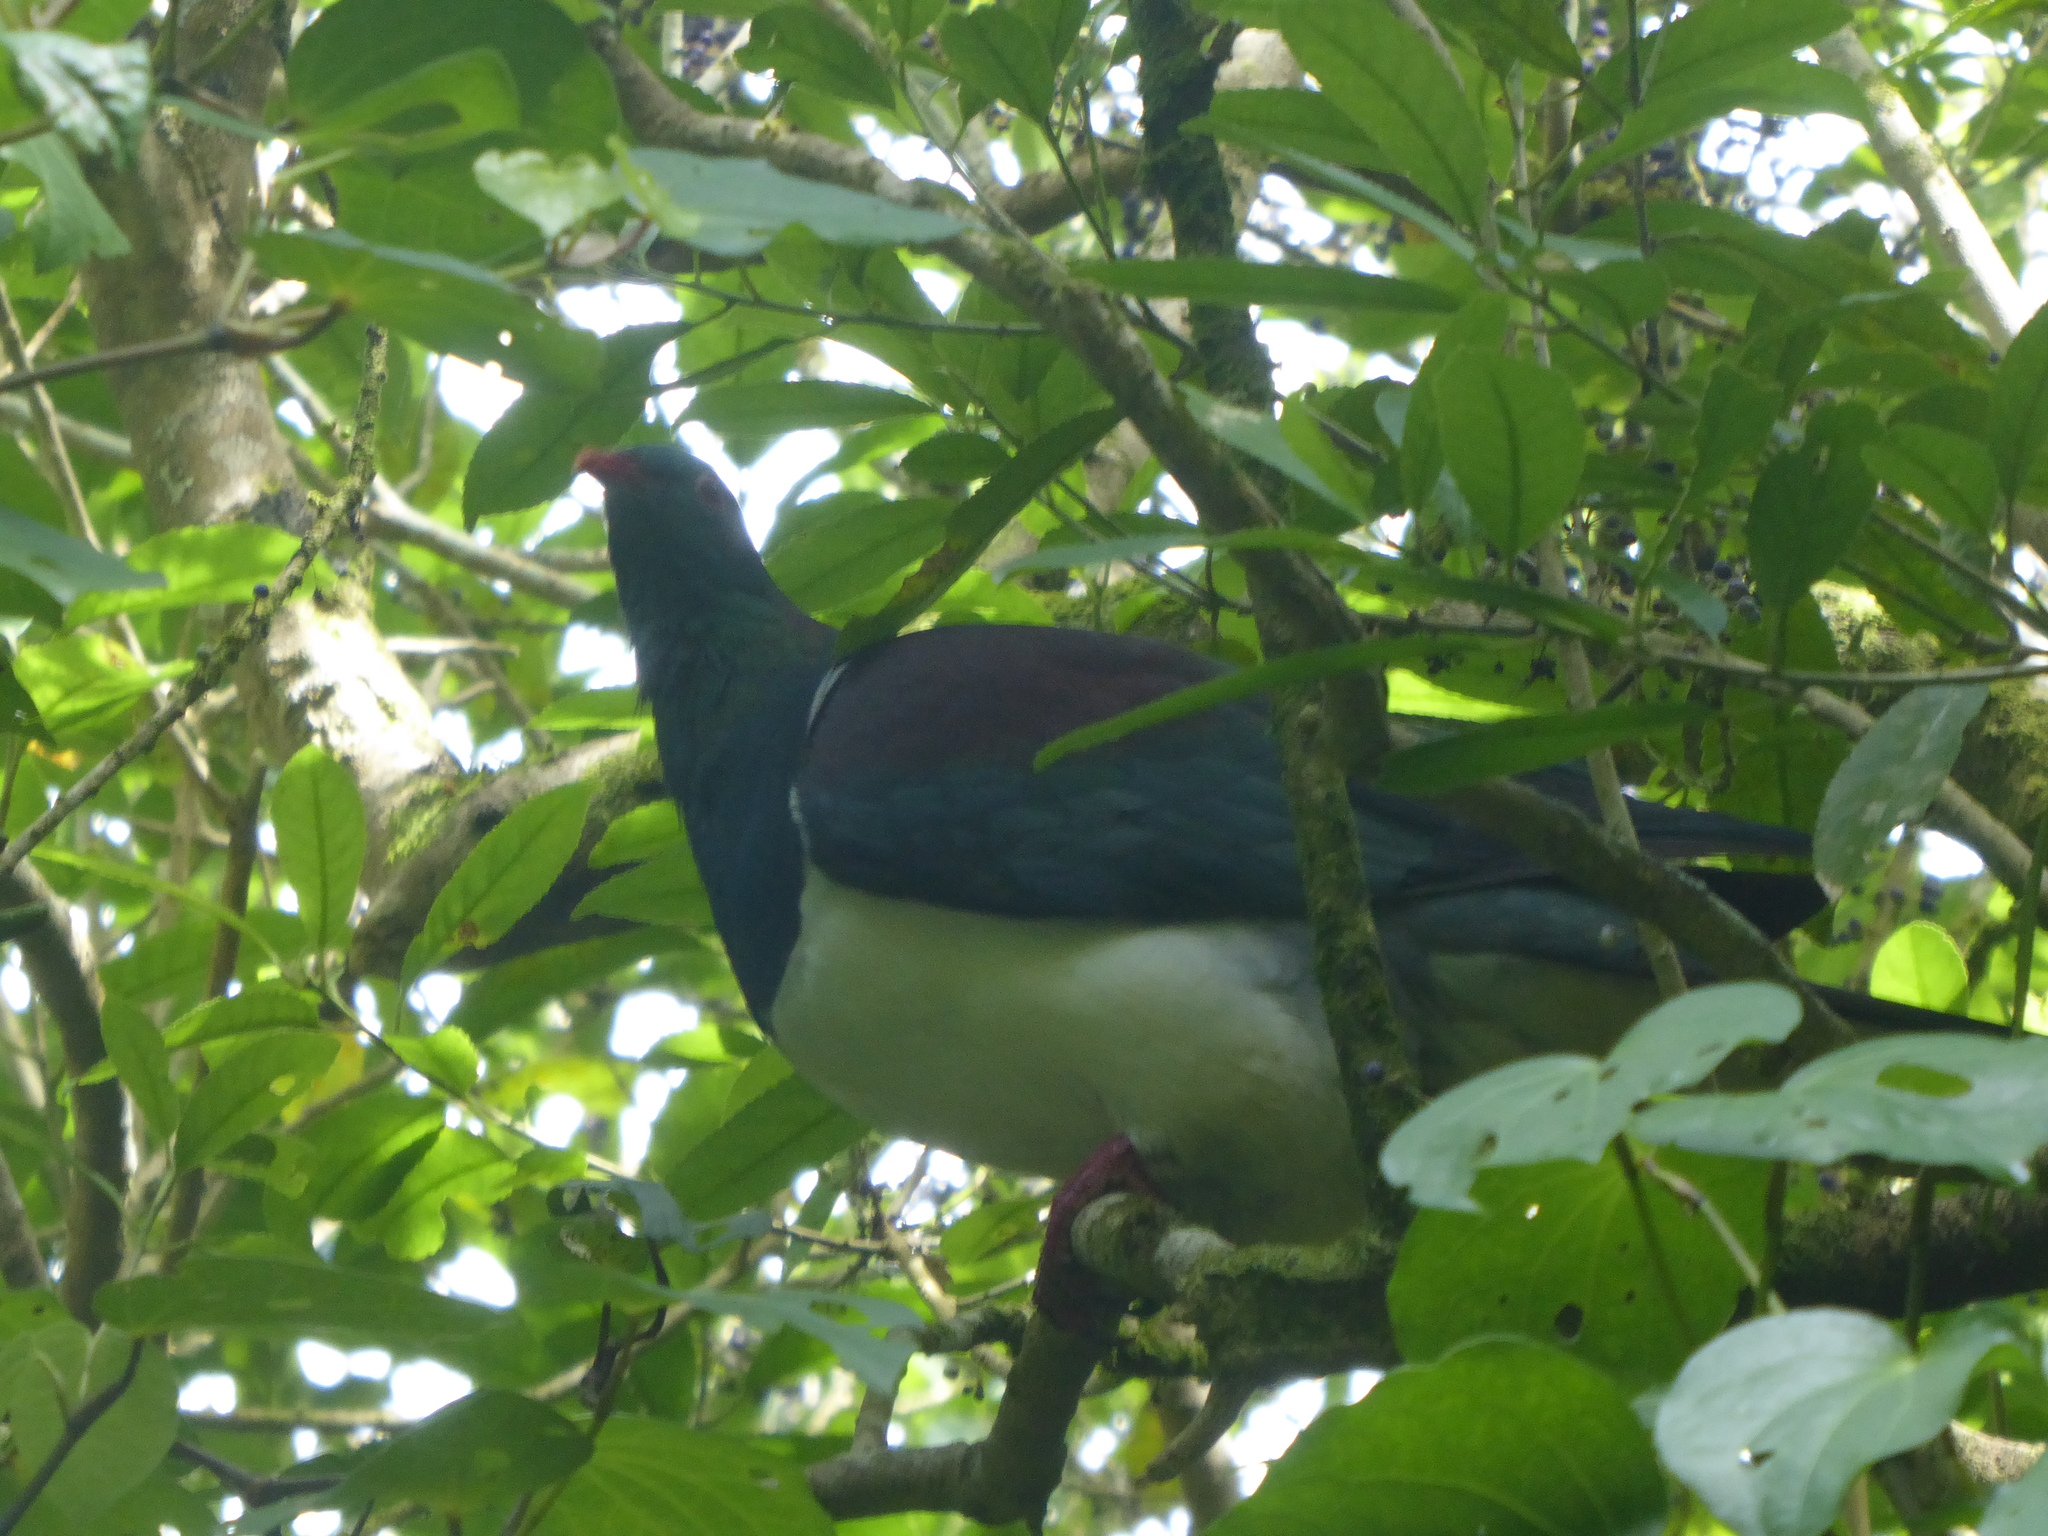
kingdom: Animalia
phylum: Chordata
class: Aves
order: Columbiformes
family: Columbidae
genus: Hemiphaga
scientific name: Hemiphaga novaeseelandiae
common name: New zealand pigeon
